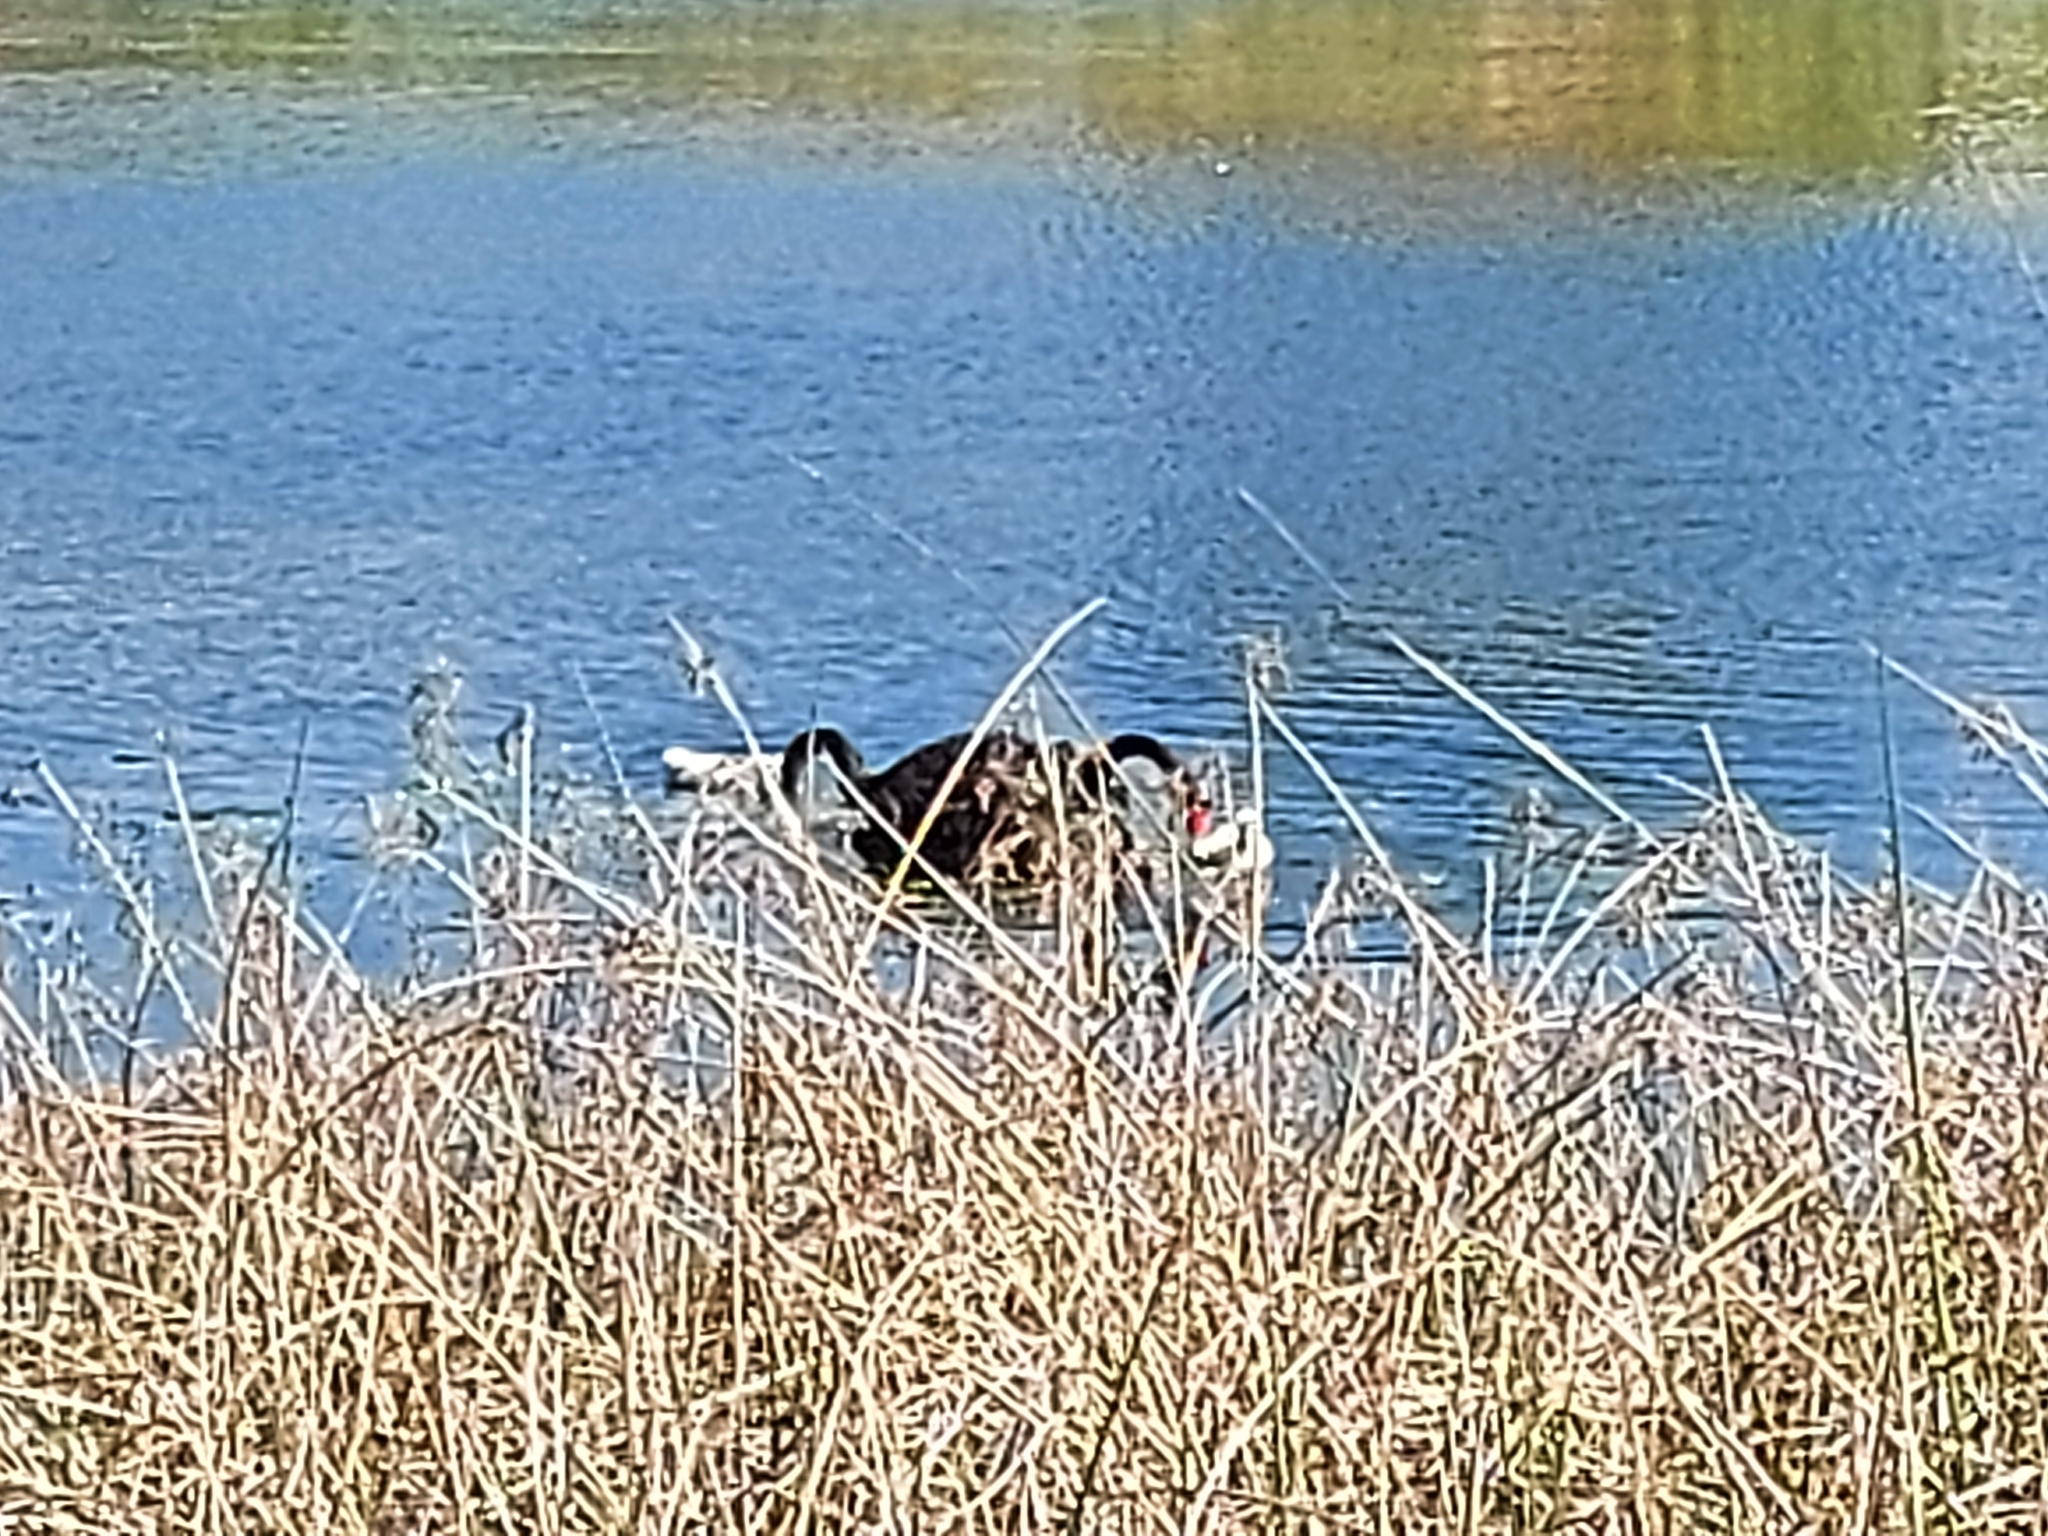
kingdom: Animalia
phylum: Chordata
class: Aves
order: Anseriformes
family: Anatidae
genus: Cygnus
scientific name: Cygnus atratus
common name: Black swan
